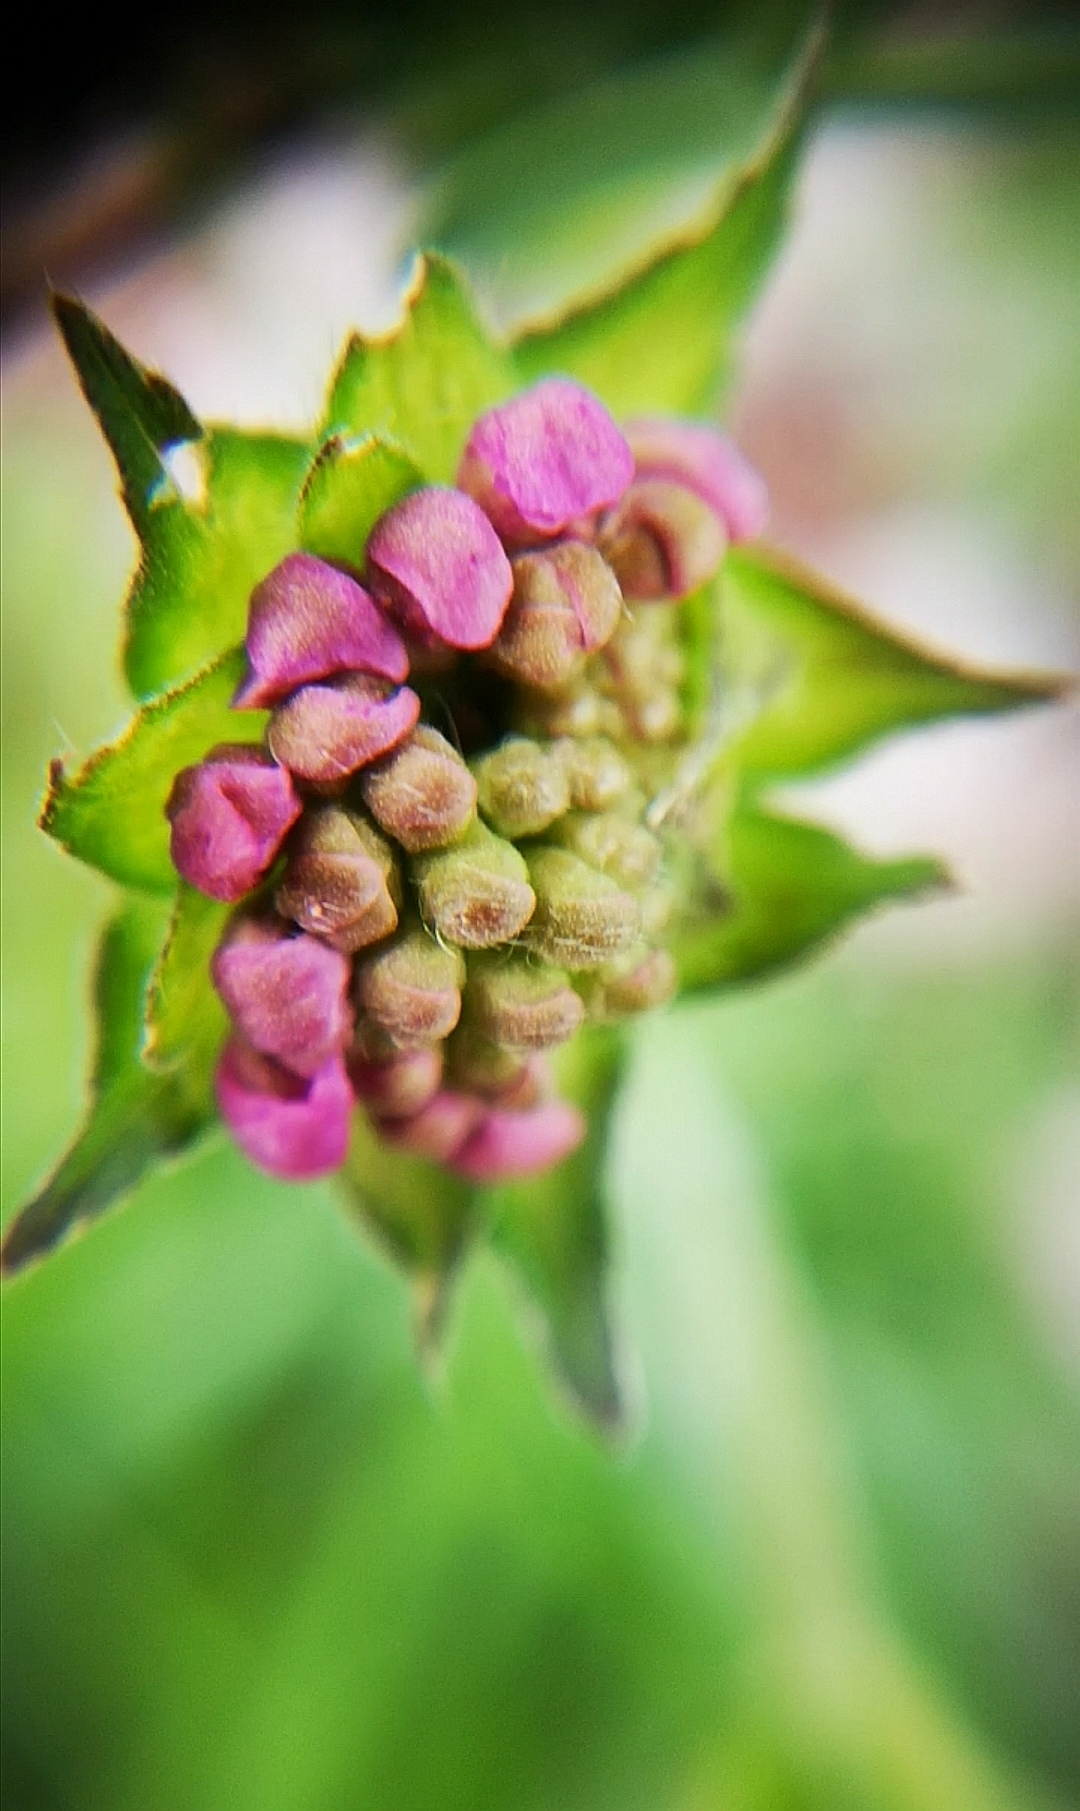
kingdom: Plantae
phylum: Tracheophyta
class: Magnoliopsida
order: Dipsacales
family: Caprifoliaceae
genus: Knautia
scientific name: Knautia arvensis
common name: Field scabiosa
